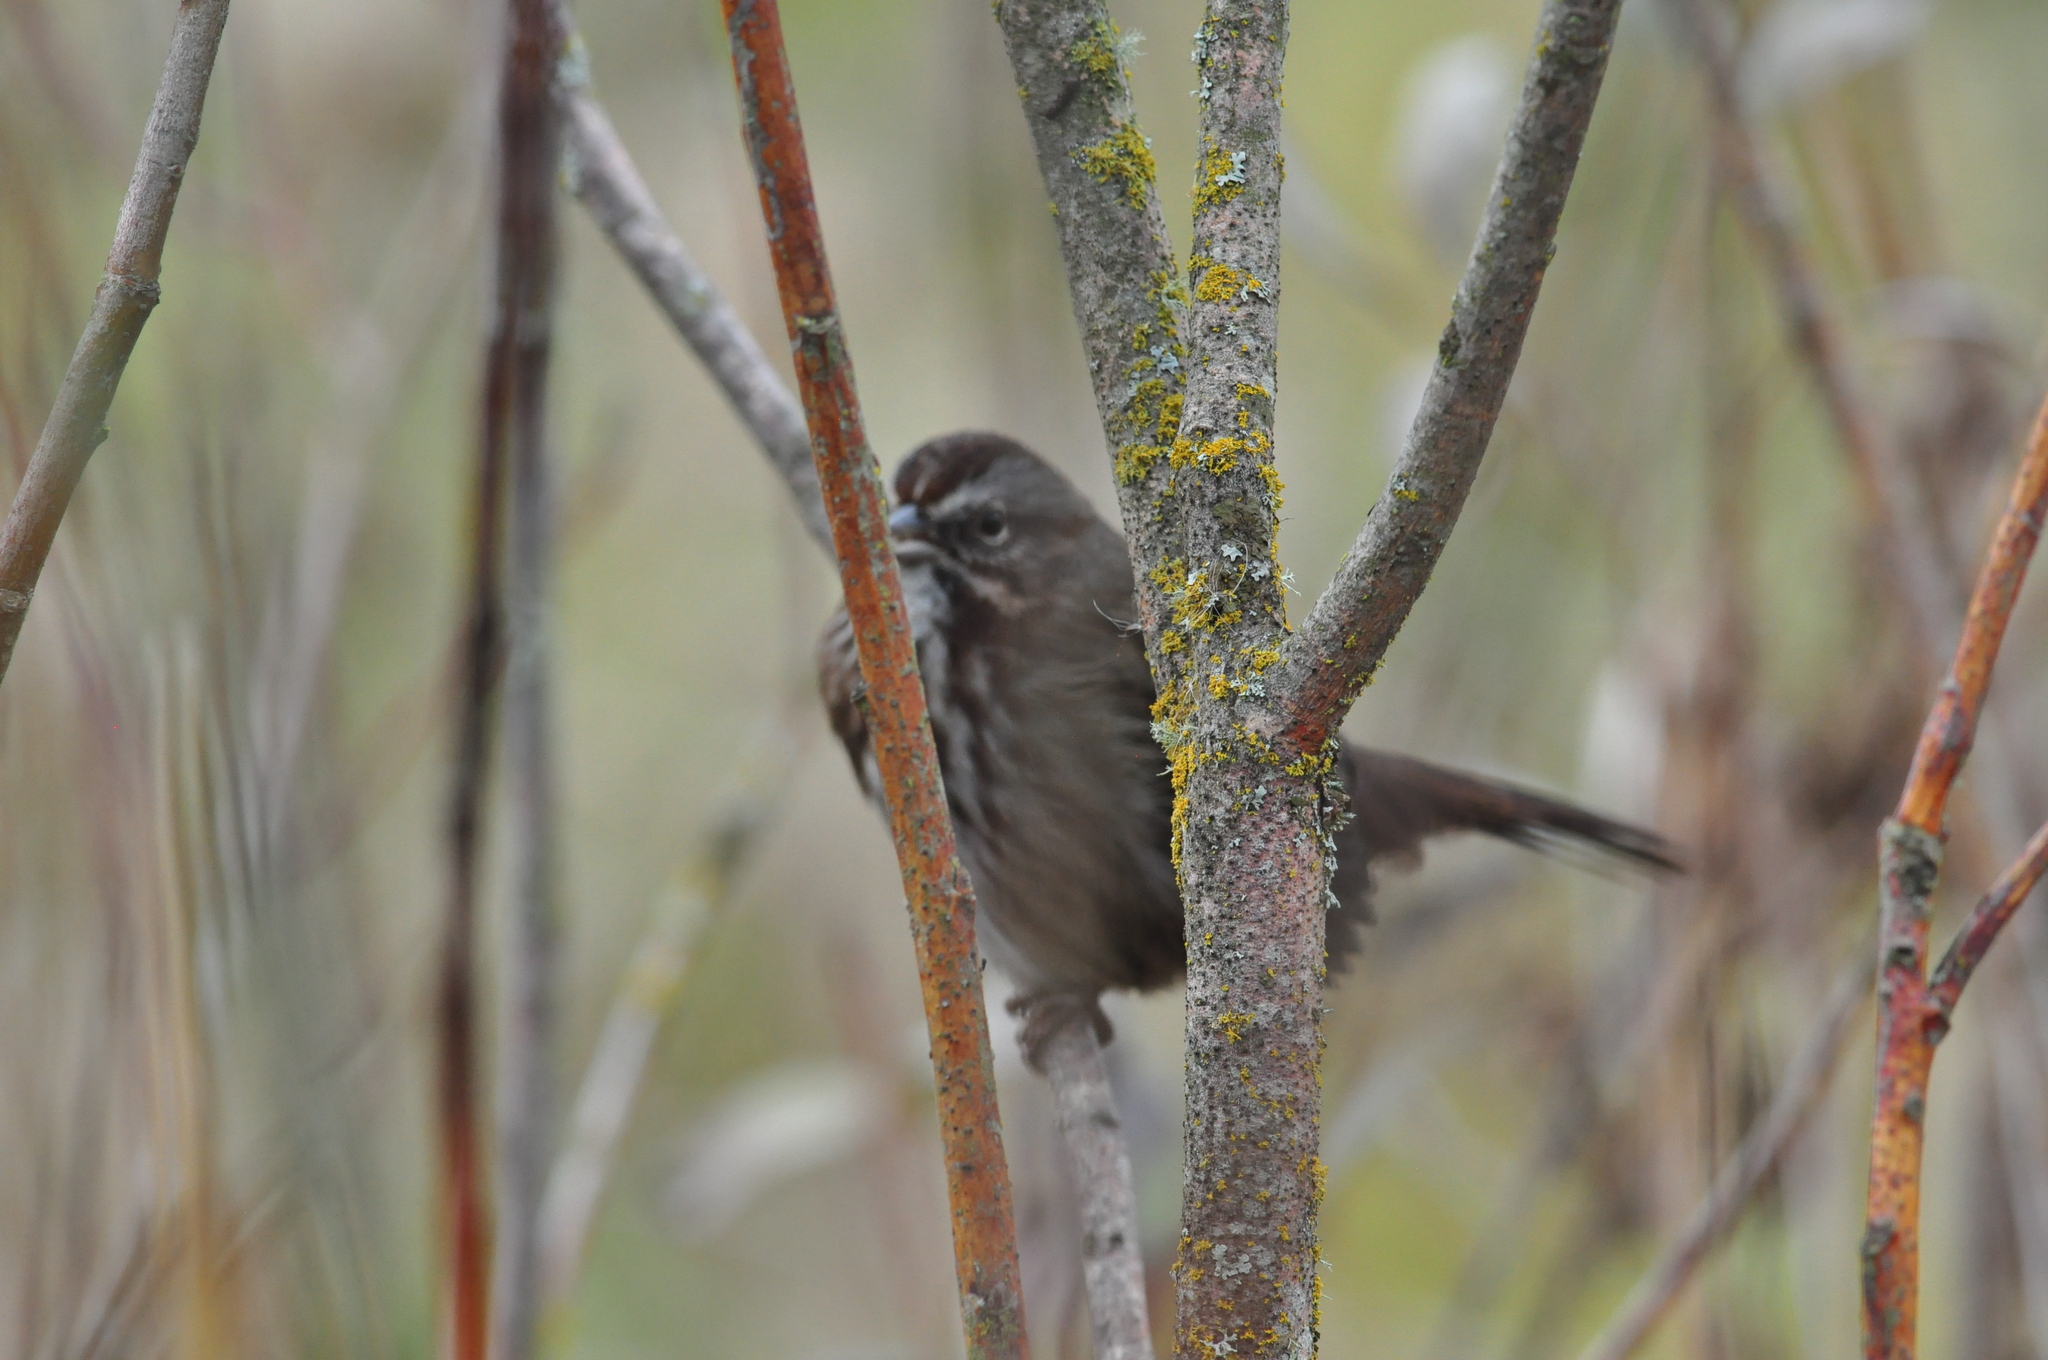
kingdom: Animalia
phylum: Chordata
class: Aves
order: Passeriformes
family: Passerellidae
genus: Melospiza
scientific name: Melospiza melodia
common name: Song sparrow
